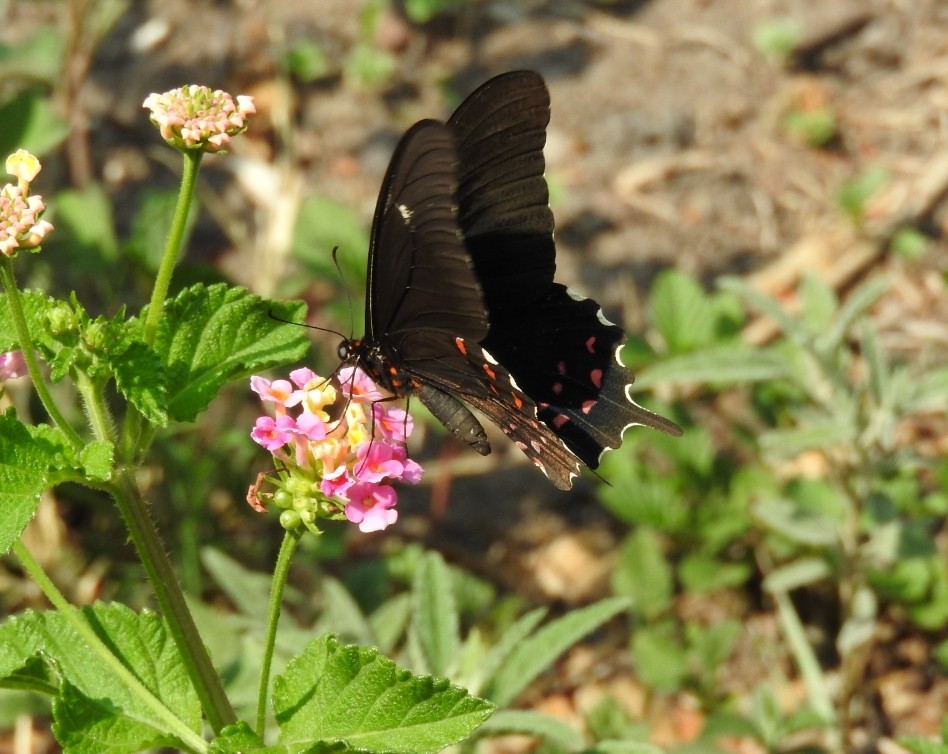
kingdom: Animalia
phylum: Arthropoda
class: Insecta
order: Lepidoptera
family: Papilionidae
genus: Heraclides
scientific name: Heraclides rogeri
